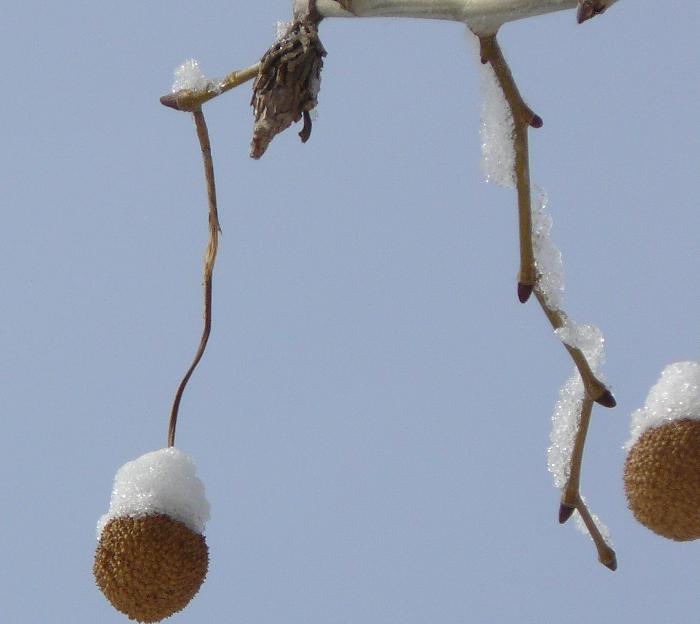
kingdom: Plantae
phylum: Tracheophyta
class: Magnoliopsida
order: Proteales
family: Platanaceae
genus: Platanus
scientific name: Platanus occidentalis
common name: American sycamore
